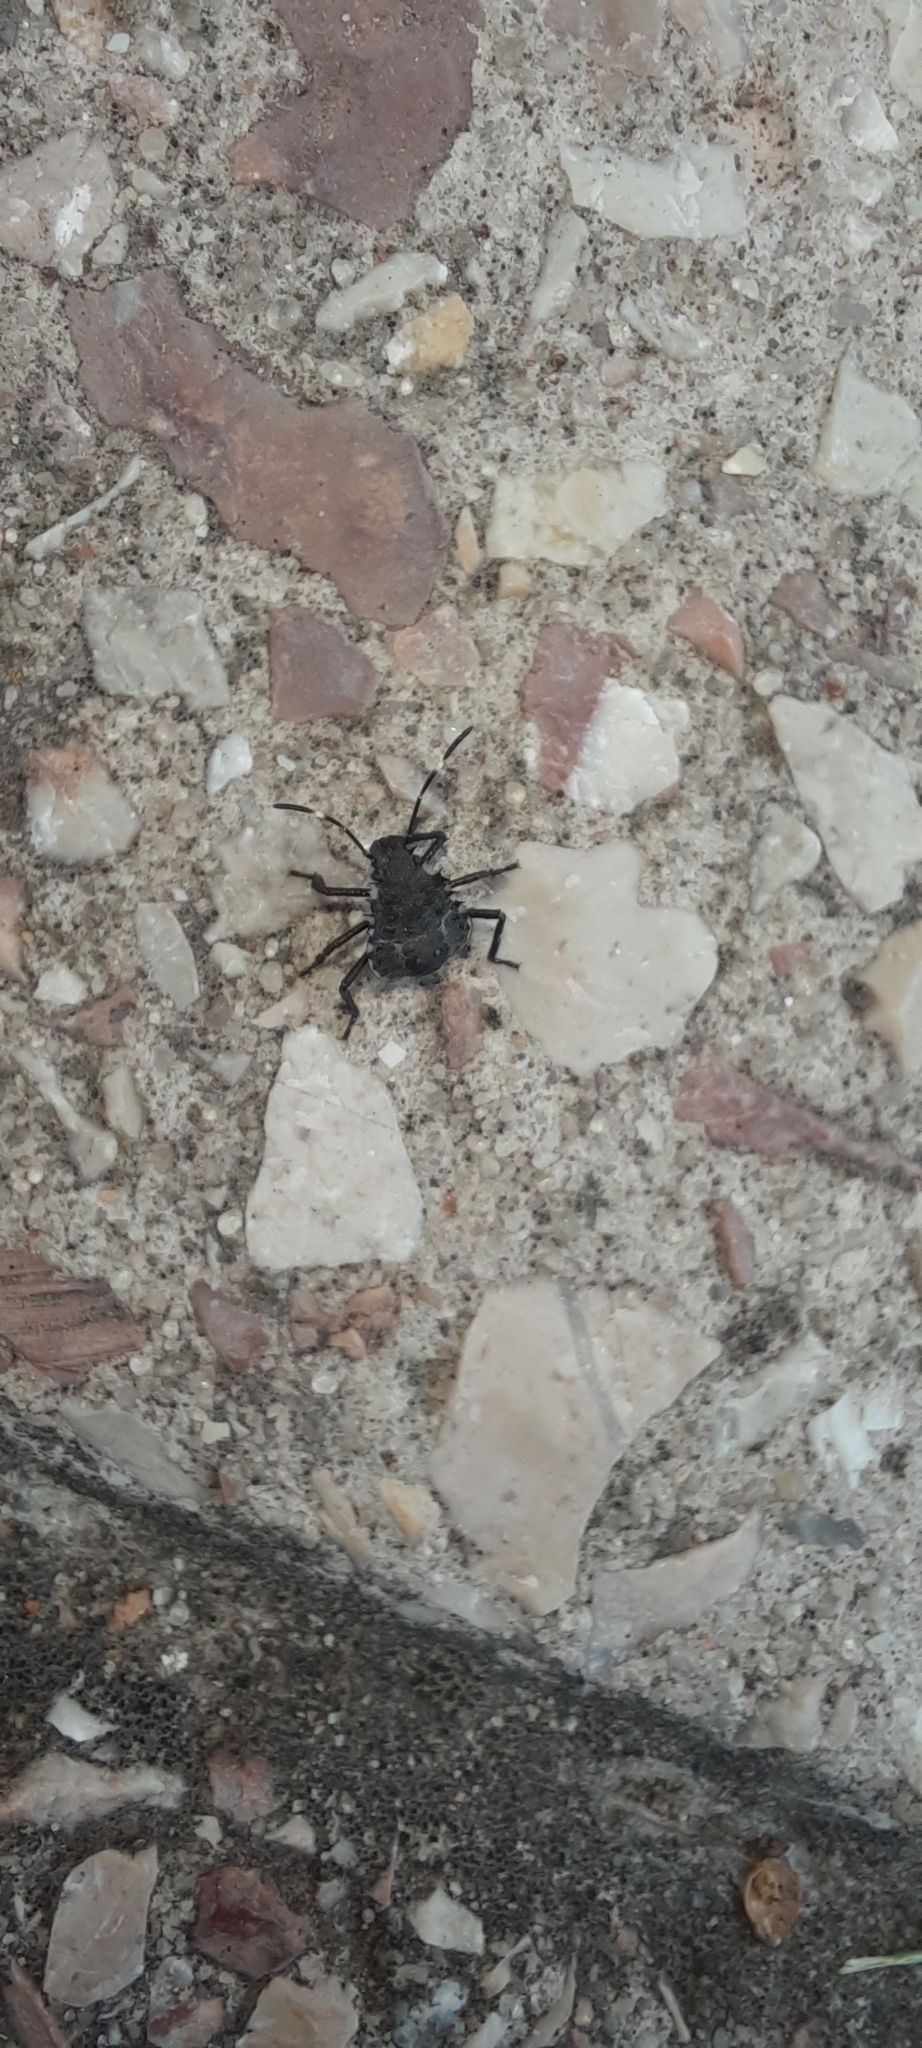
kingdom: Animalia
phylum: Arthropoda
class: Insecta
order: Hemiptera
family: Pentatomidae
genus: Halyomorpha
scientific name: Halyomorpha halys
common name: Brown marmorated stink bug
